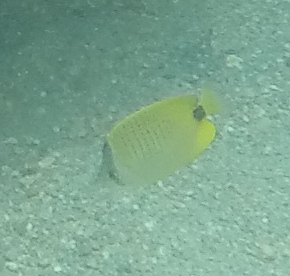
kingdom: Animalia
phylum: Chordata
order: Perciformes
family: Chaetodontidae
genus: Chaetodon
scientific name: Chaetodon miliaris
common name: Lemon butterflyfish
